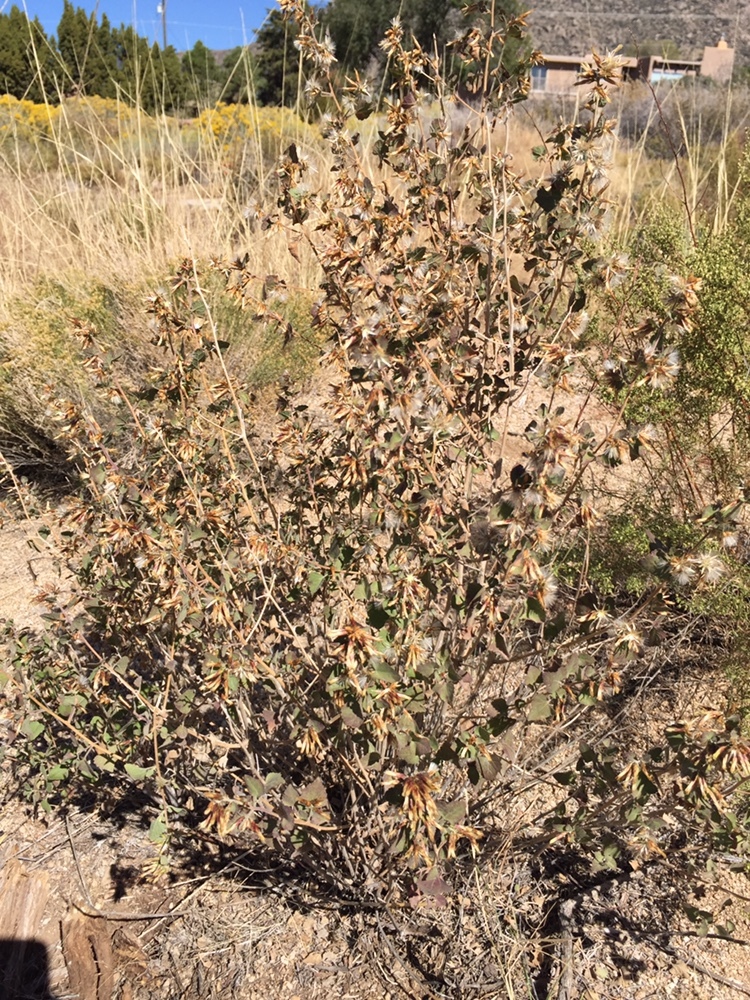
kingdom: Plantae
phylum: Tracheophyta
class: Magnoliopsida
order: Asterales
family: Asteraceae
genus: Brickellia
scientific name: Brickellia californica
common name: California brickellbush
